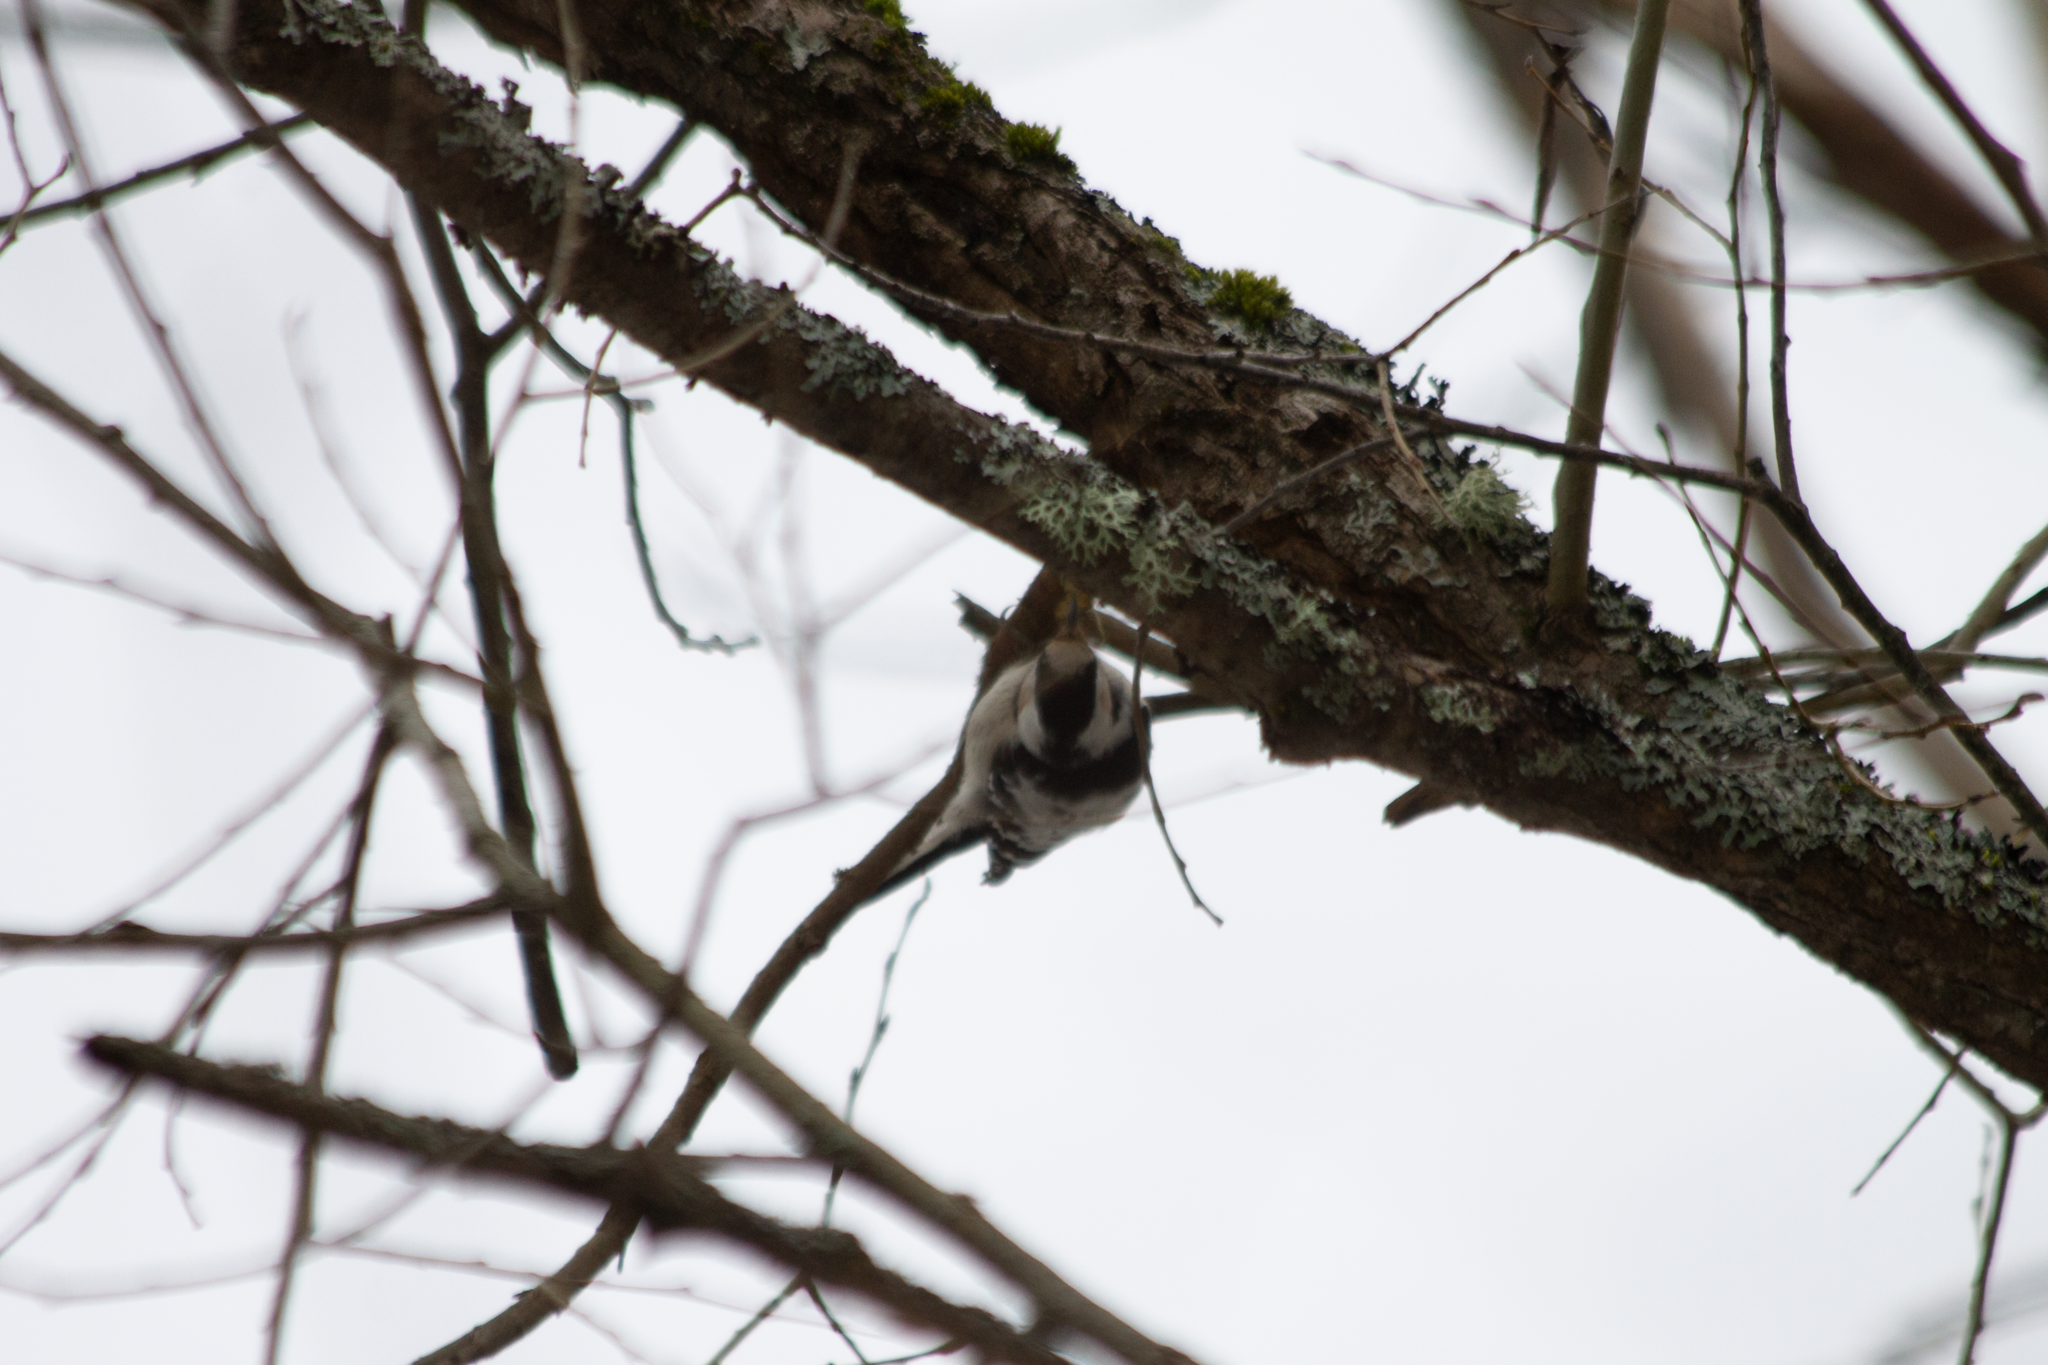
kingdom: Animalia
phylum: Chordata
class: Aves
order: Piciformes
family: Picidae
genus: Dryobates
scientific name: Dryobates minor
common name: Lesser spotted woodpecker
